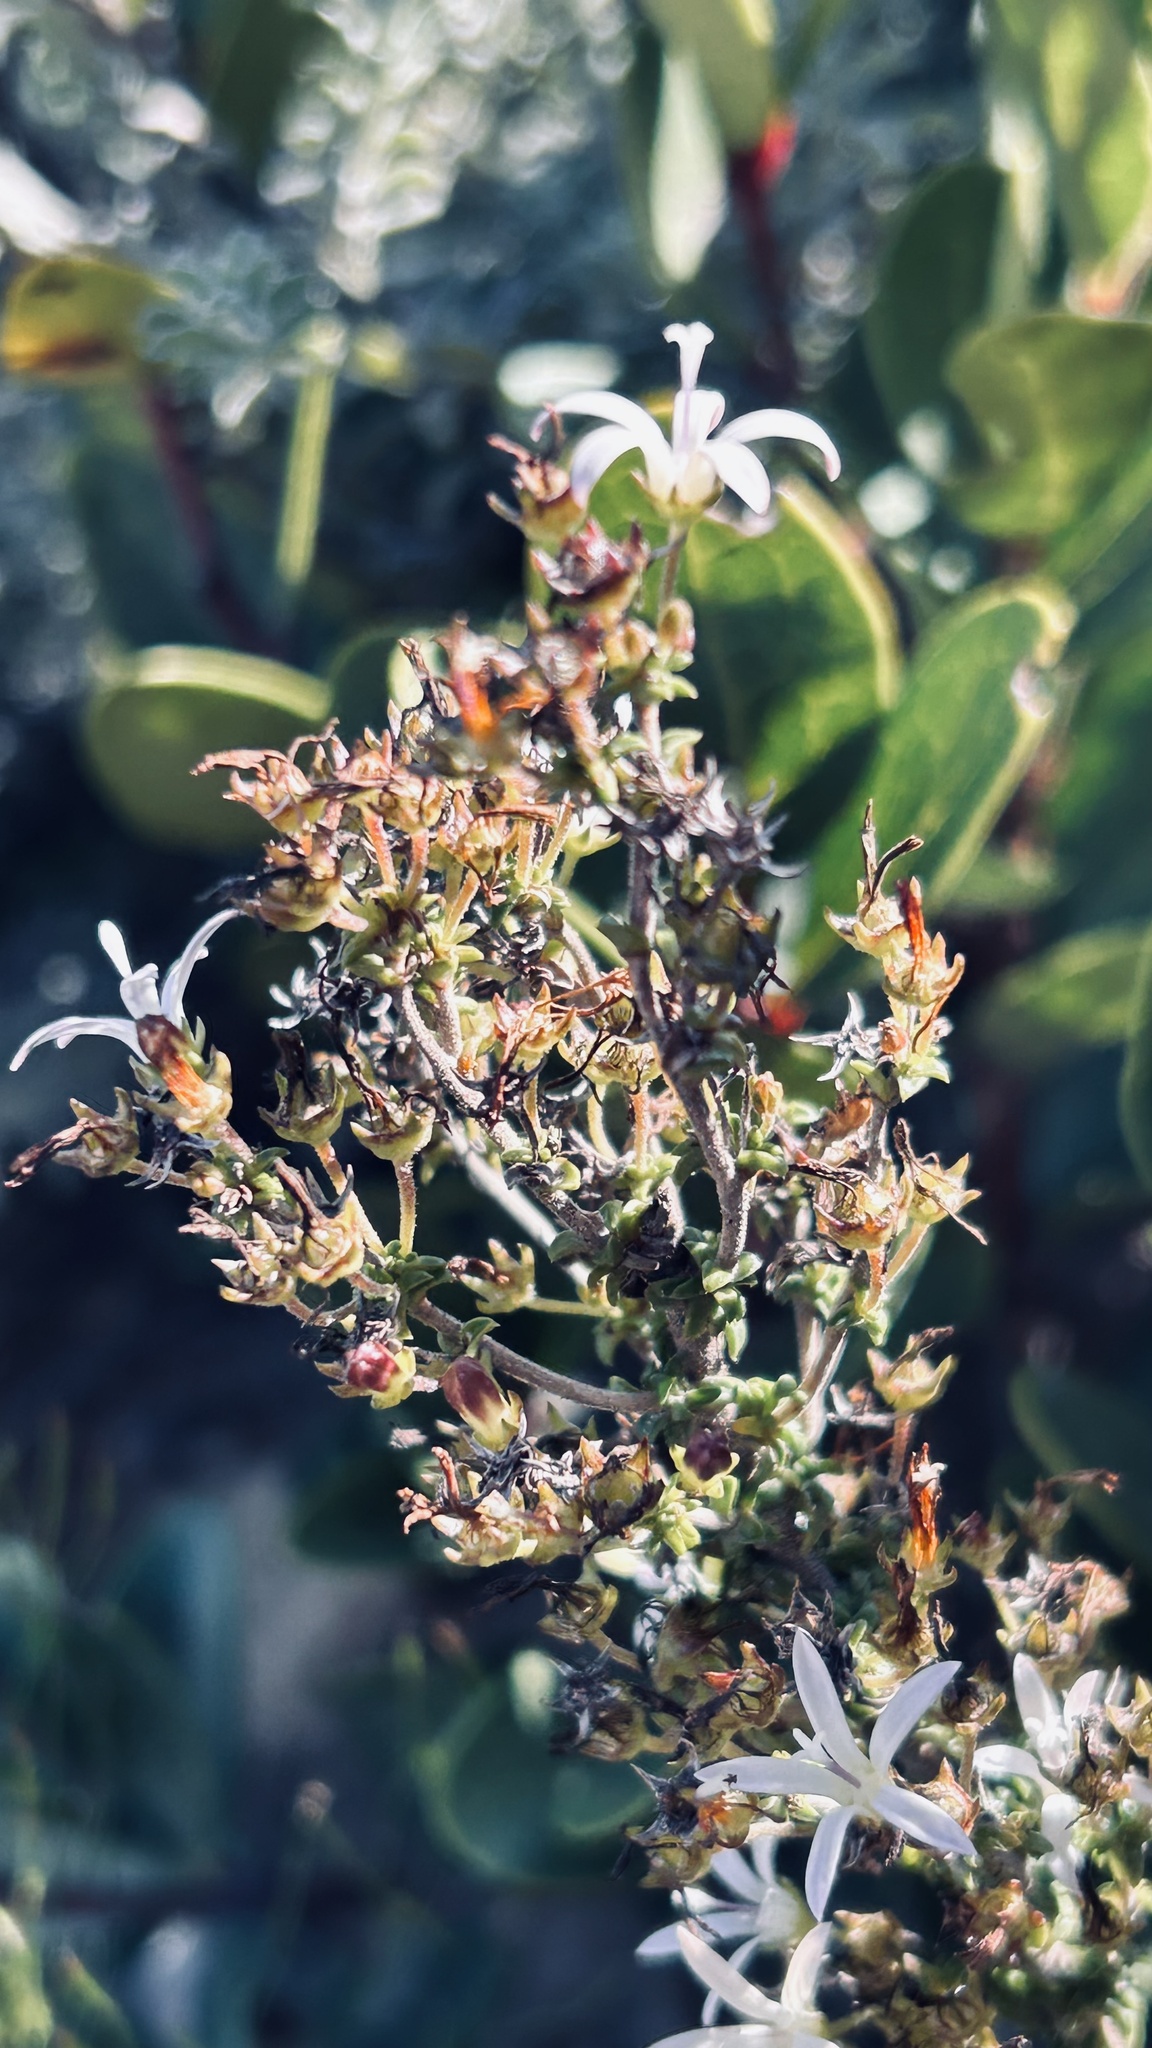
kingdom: Plantae
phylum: Tracheophyta
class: Magnoliopsida
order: Asterales
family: Campanulaceae
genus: Wahlenbergia
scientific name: Wahlenbergia tenella
